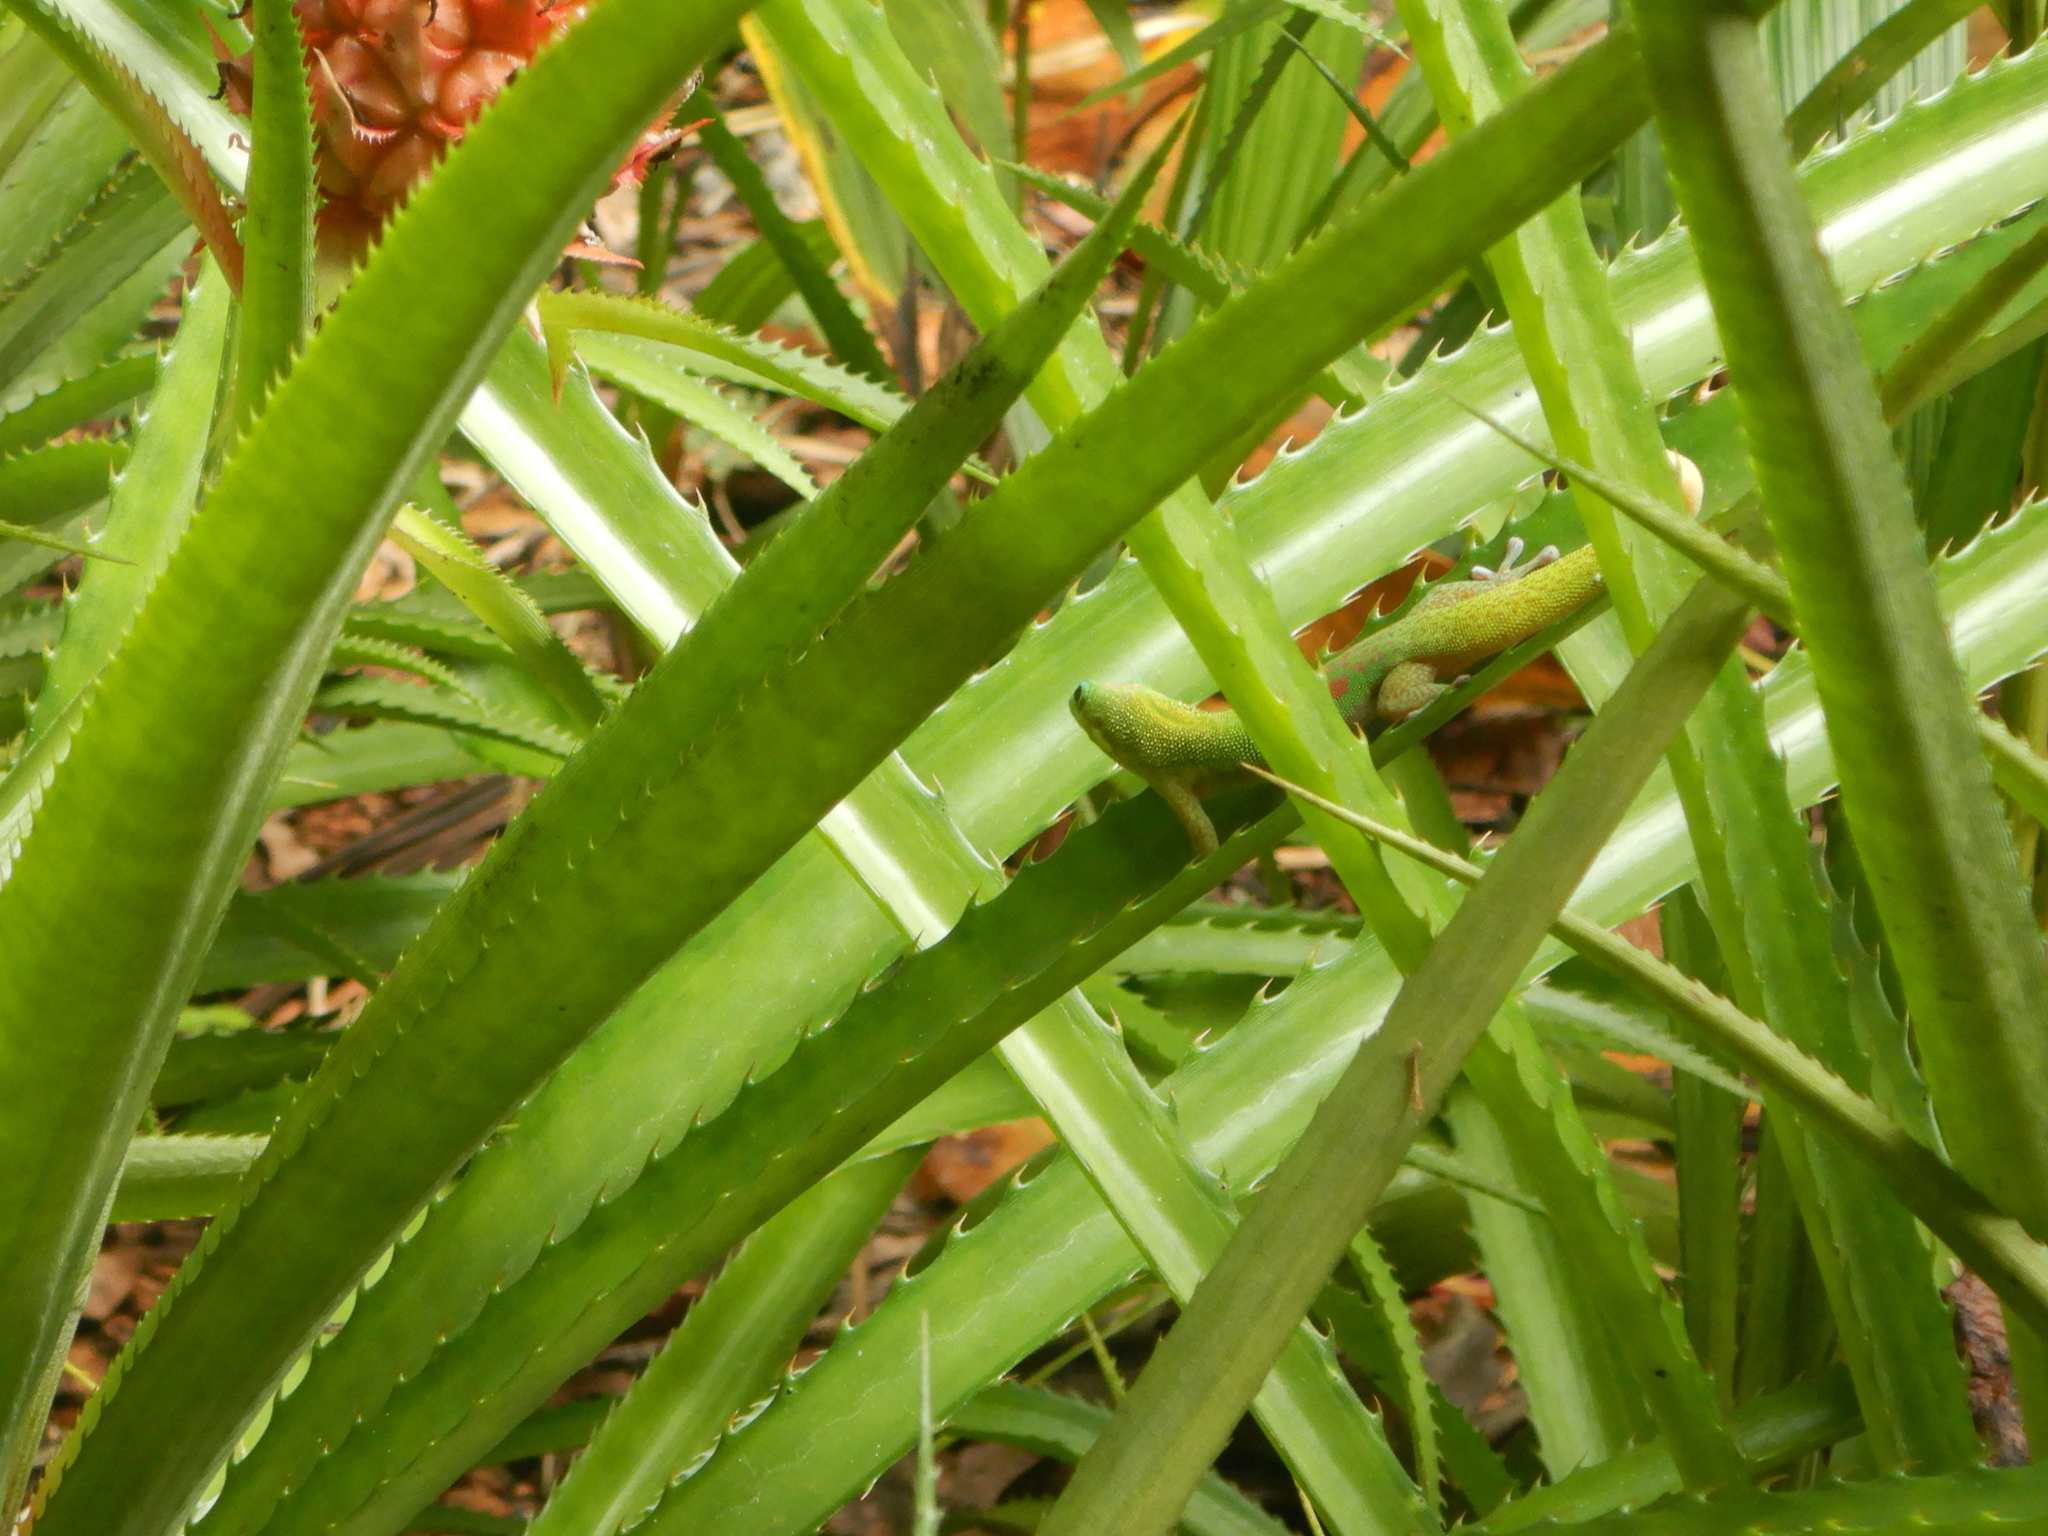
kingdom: Animalia
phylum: Chordata
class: Squamata
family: Gekkonidae
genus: Phelsuma
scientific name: Phelsuma laticauda
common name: Gold dust day gecko
